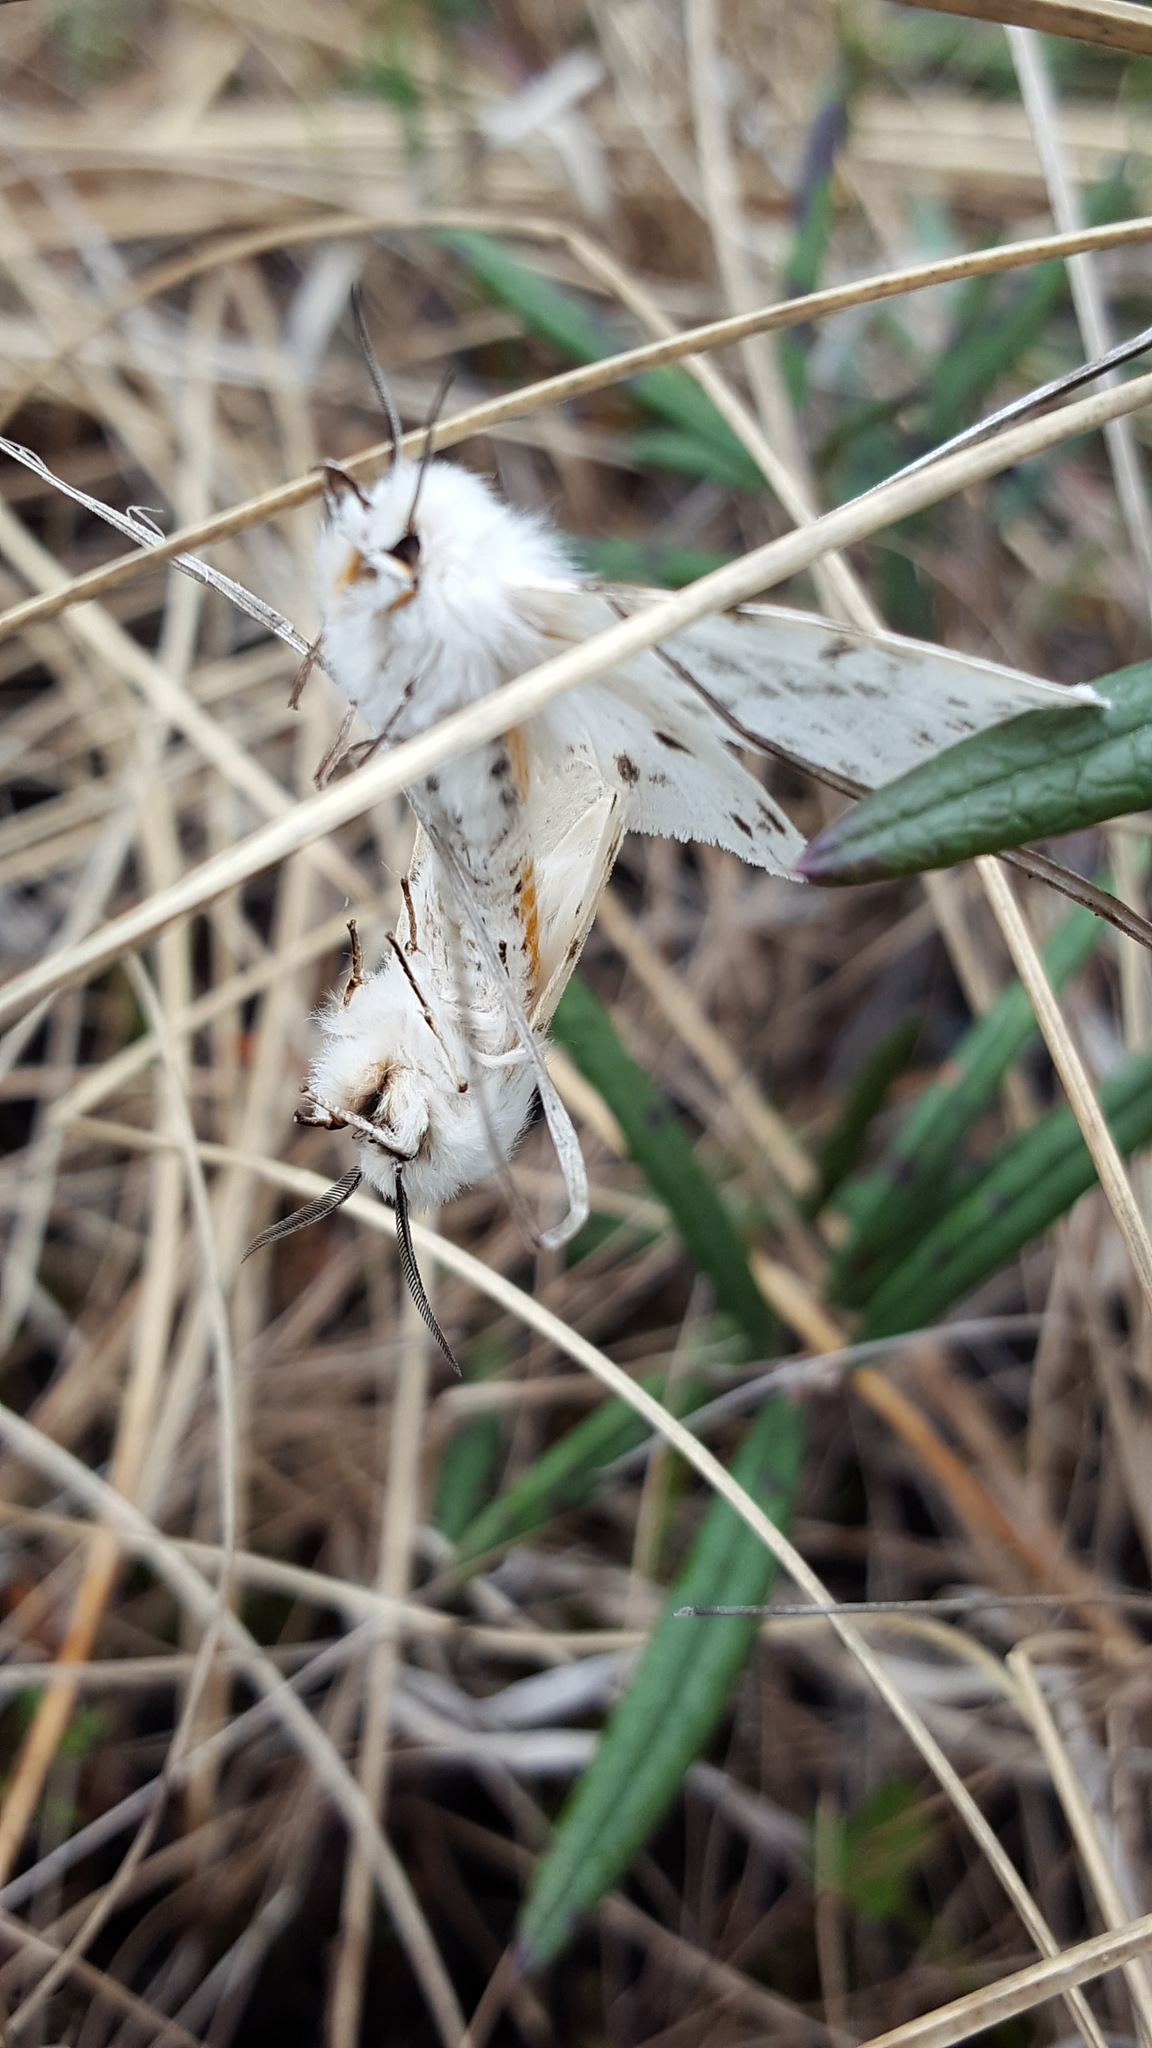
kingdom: Animalia
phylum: Arthropoda
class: Insecta
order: Lepidoptera
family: Erebidae
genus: Spilosoma
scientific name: Spilosoma dubia
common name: Dubious tiger moth
